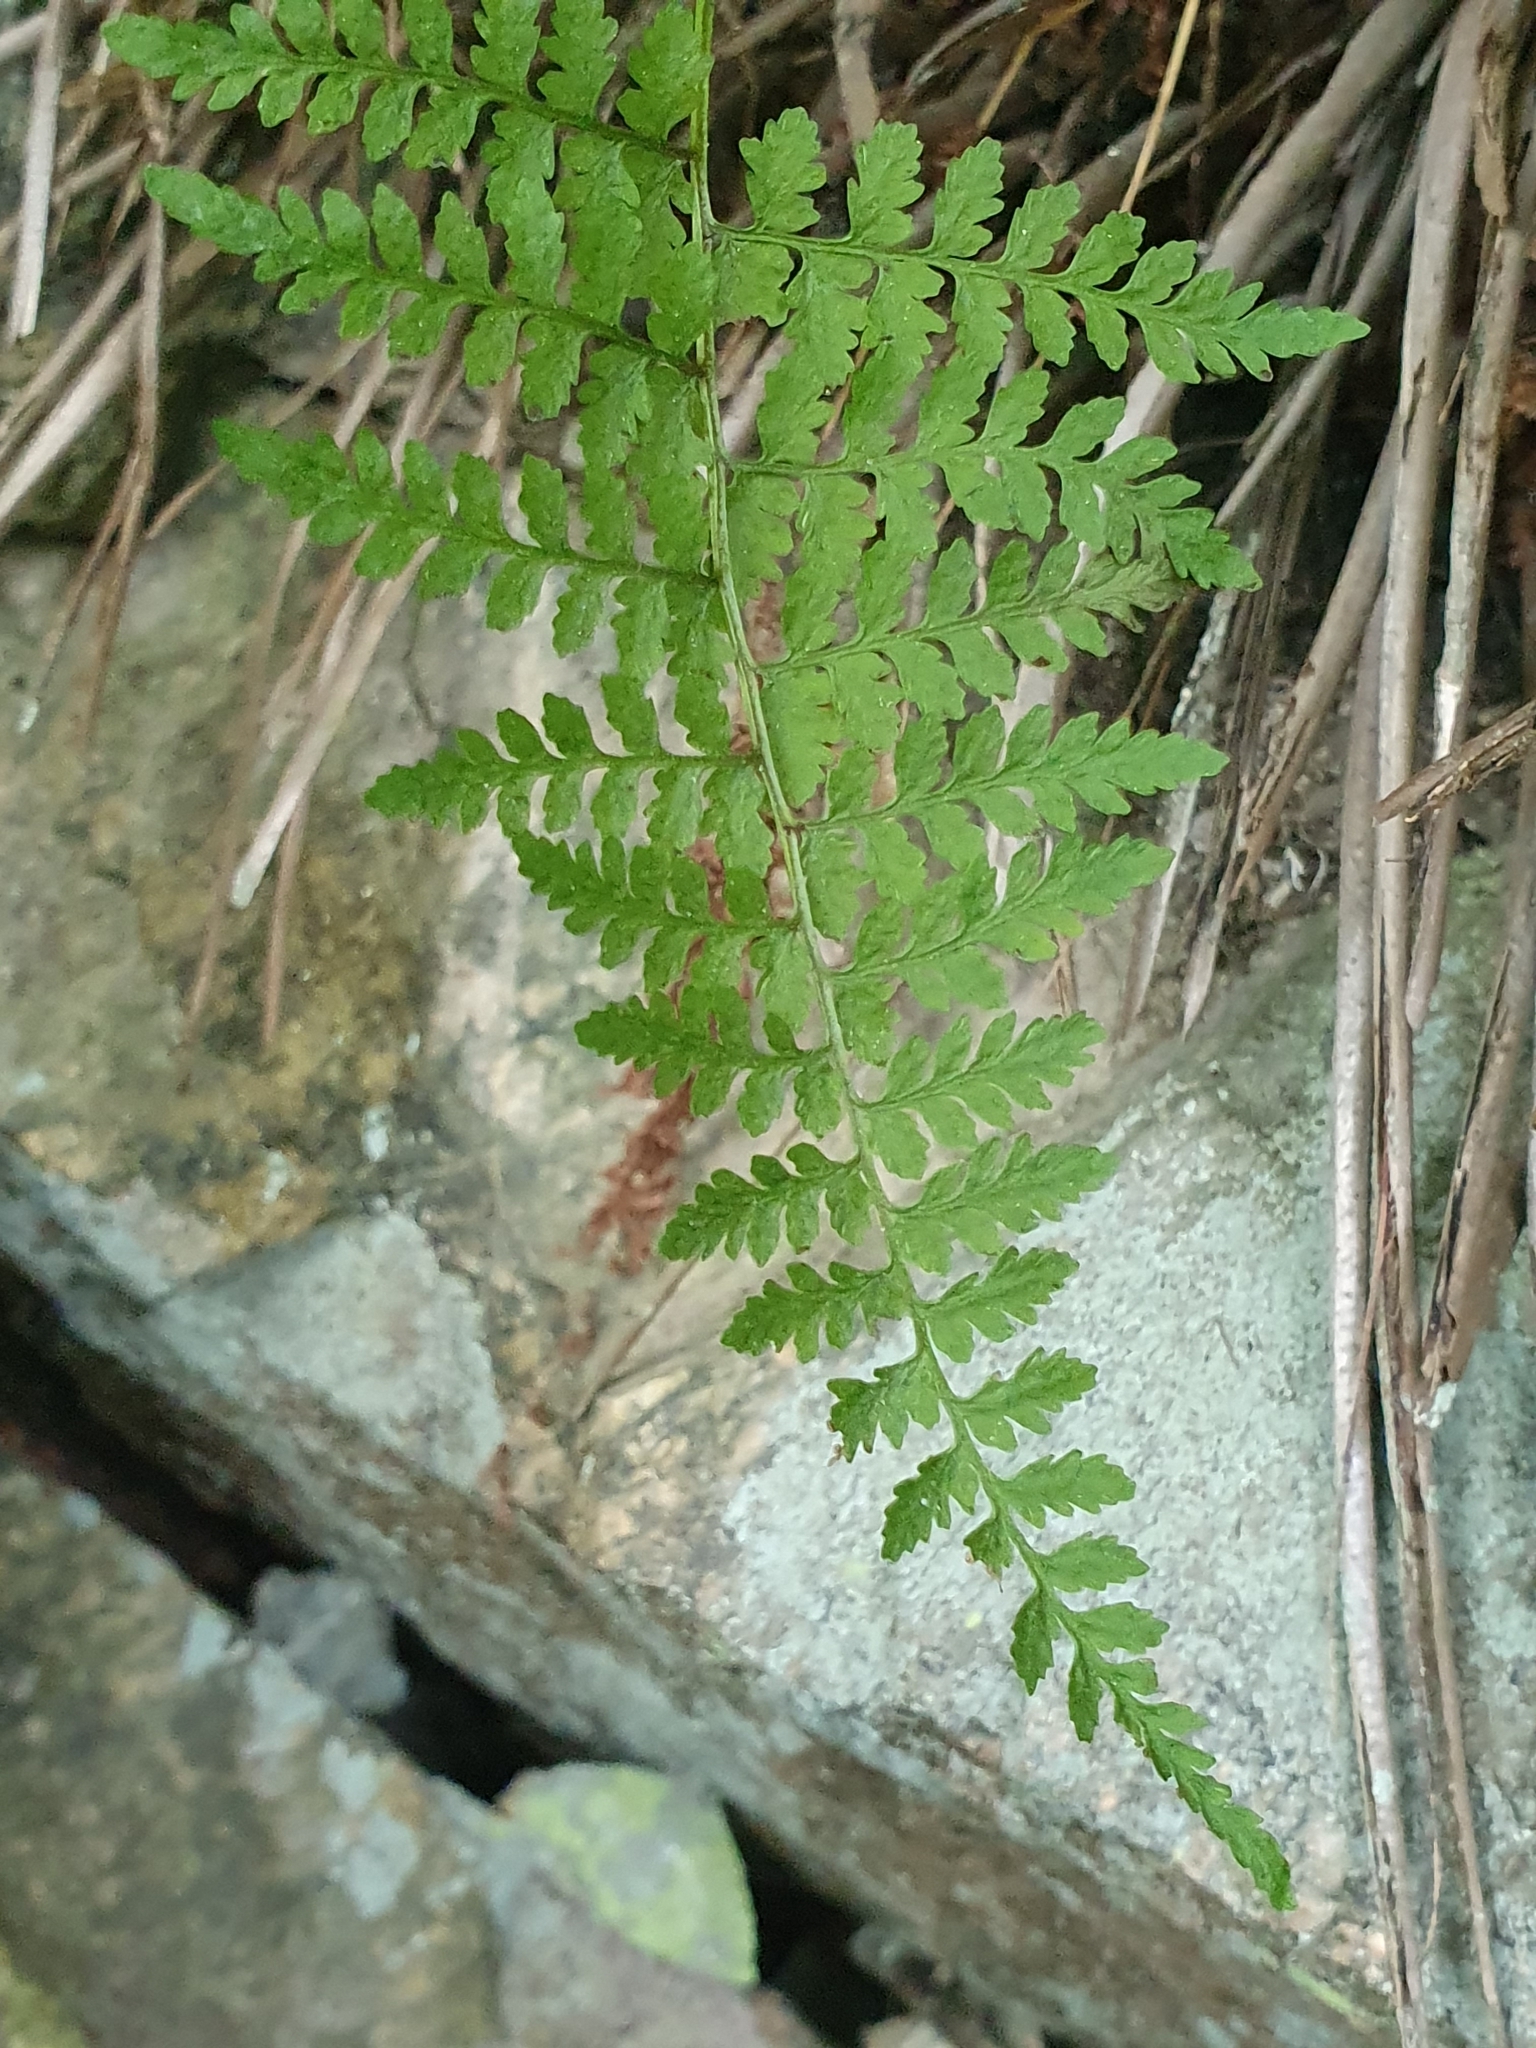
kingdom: Plantae
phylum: Tracheophyta
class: Polypodiopsida
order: Polypodiales
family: Cystopteridaceae
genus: Cystopteris
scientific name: Cystopteris fragilis
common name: Brittle bladder fern
